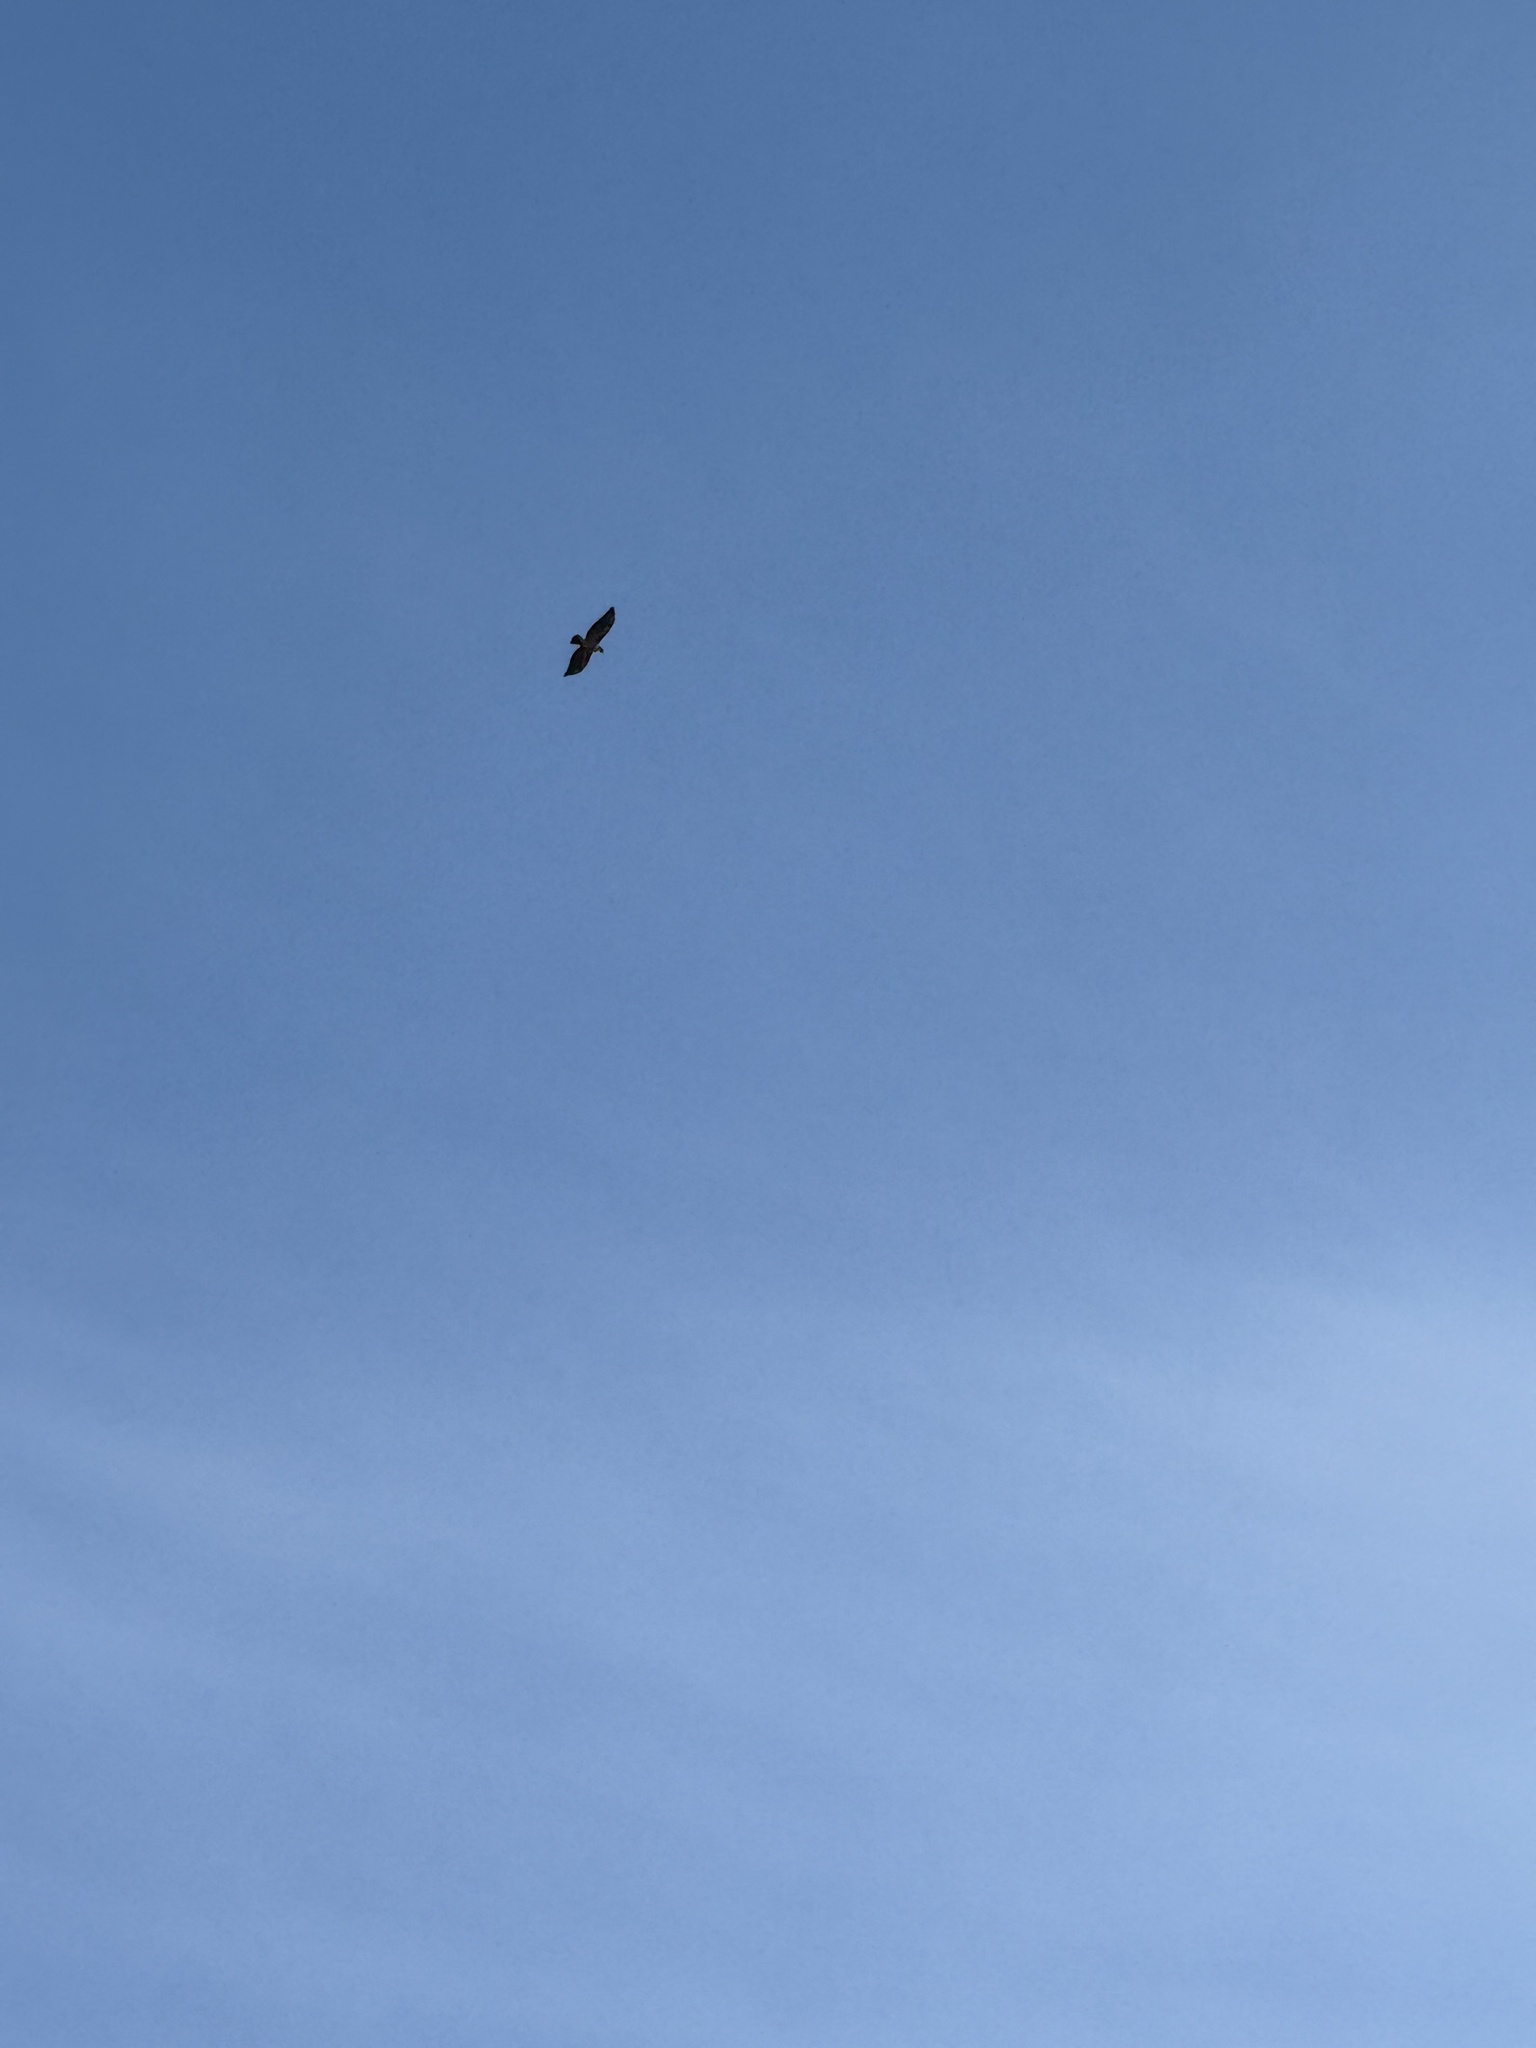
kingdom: Animalia
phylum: Chordata
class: Aves
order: Accipitriformes
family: Accipitridae
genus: Buteo
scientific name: Buteo jamaicensis
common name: Red-tailed hawk
